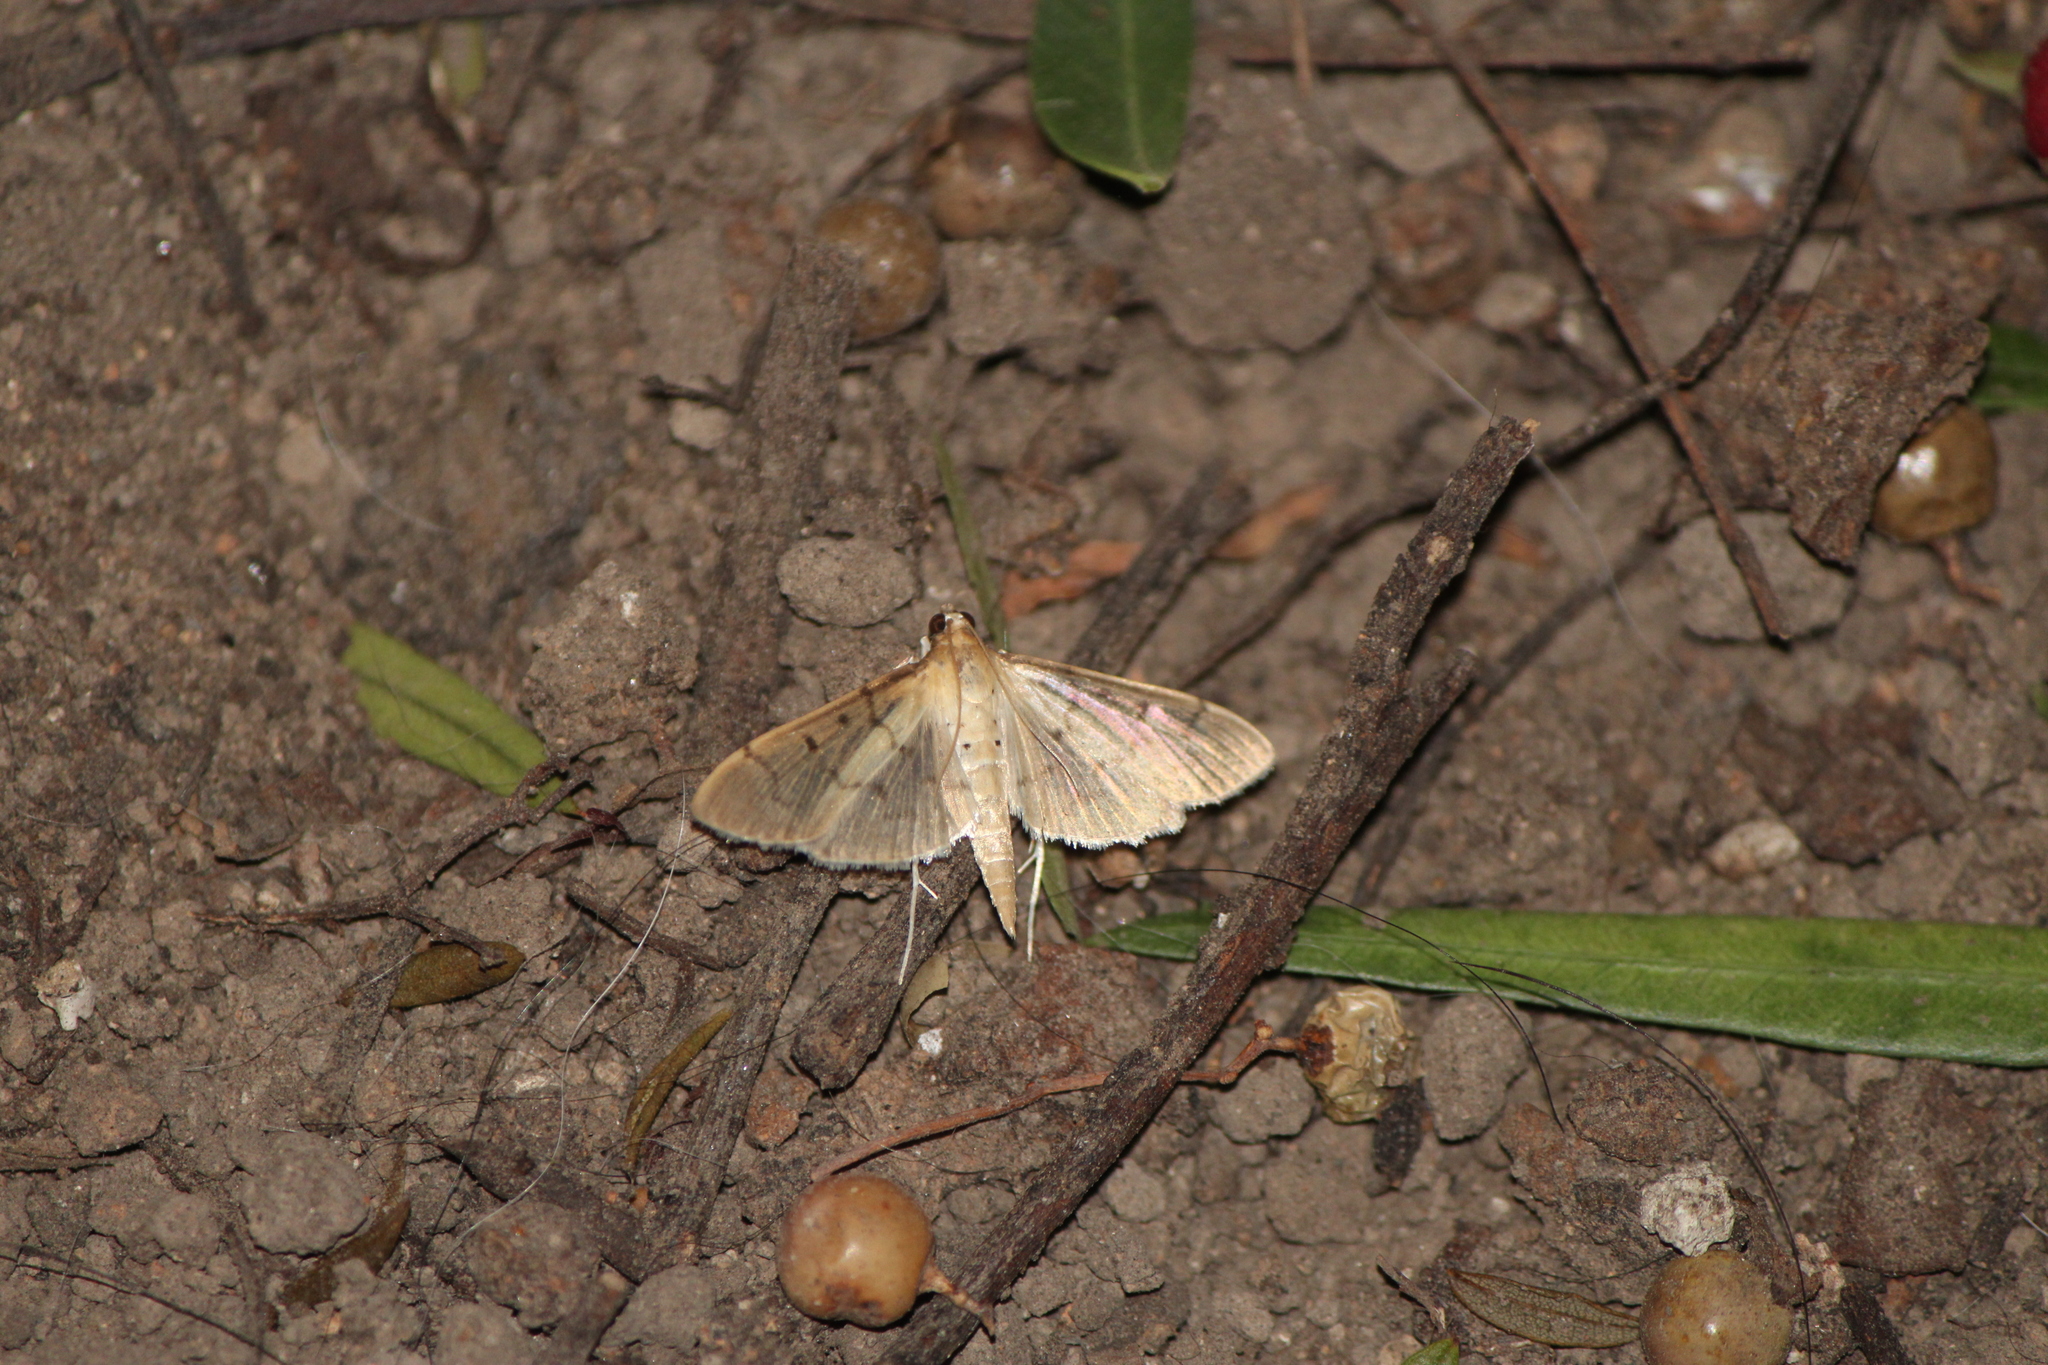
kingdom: Animalia
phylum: Arthropoda
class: Insecta
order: Lepidoptera
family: Crambidae
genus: Herpetogramma
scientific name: Herpetogramma bipunctalis
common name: Southern beet webworm
